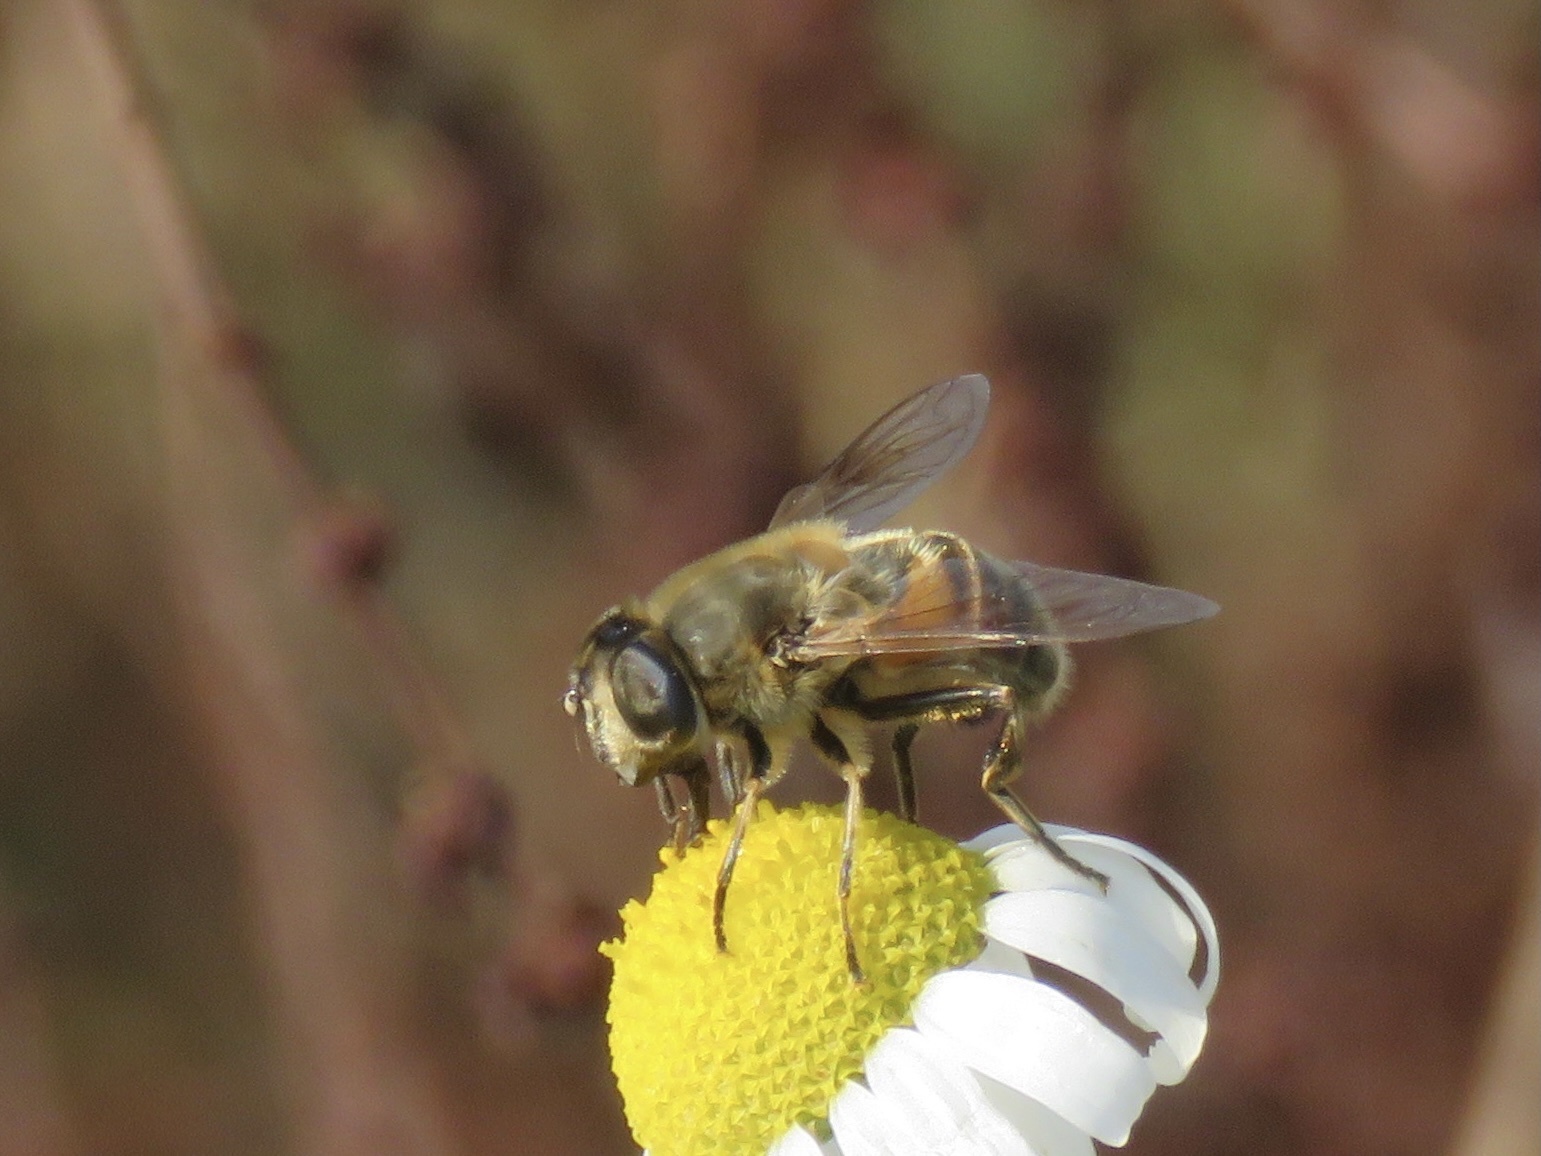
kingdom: Animalia
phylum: Arthropoda
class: Insecta
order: Diptera
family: Syrphidae
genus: Eristalis
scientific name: Eristalis tenax
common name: Drone fly
